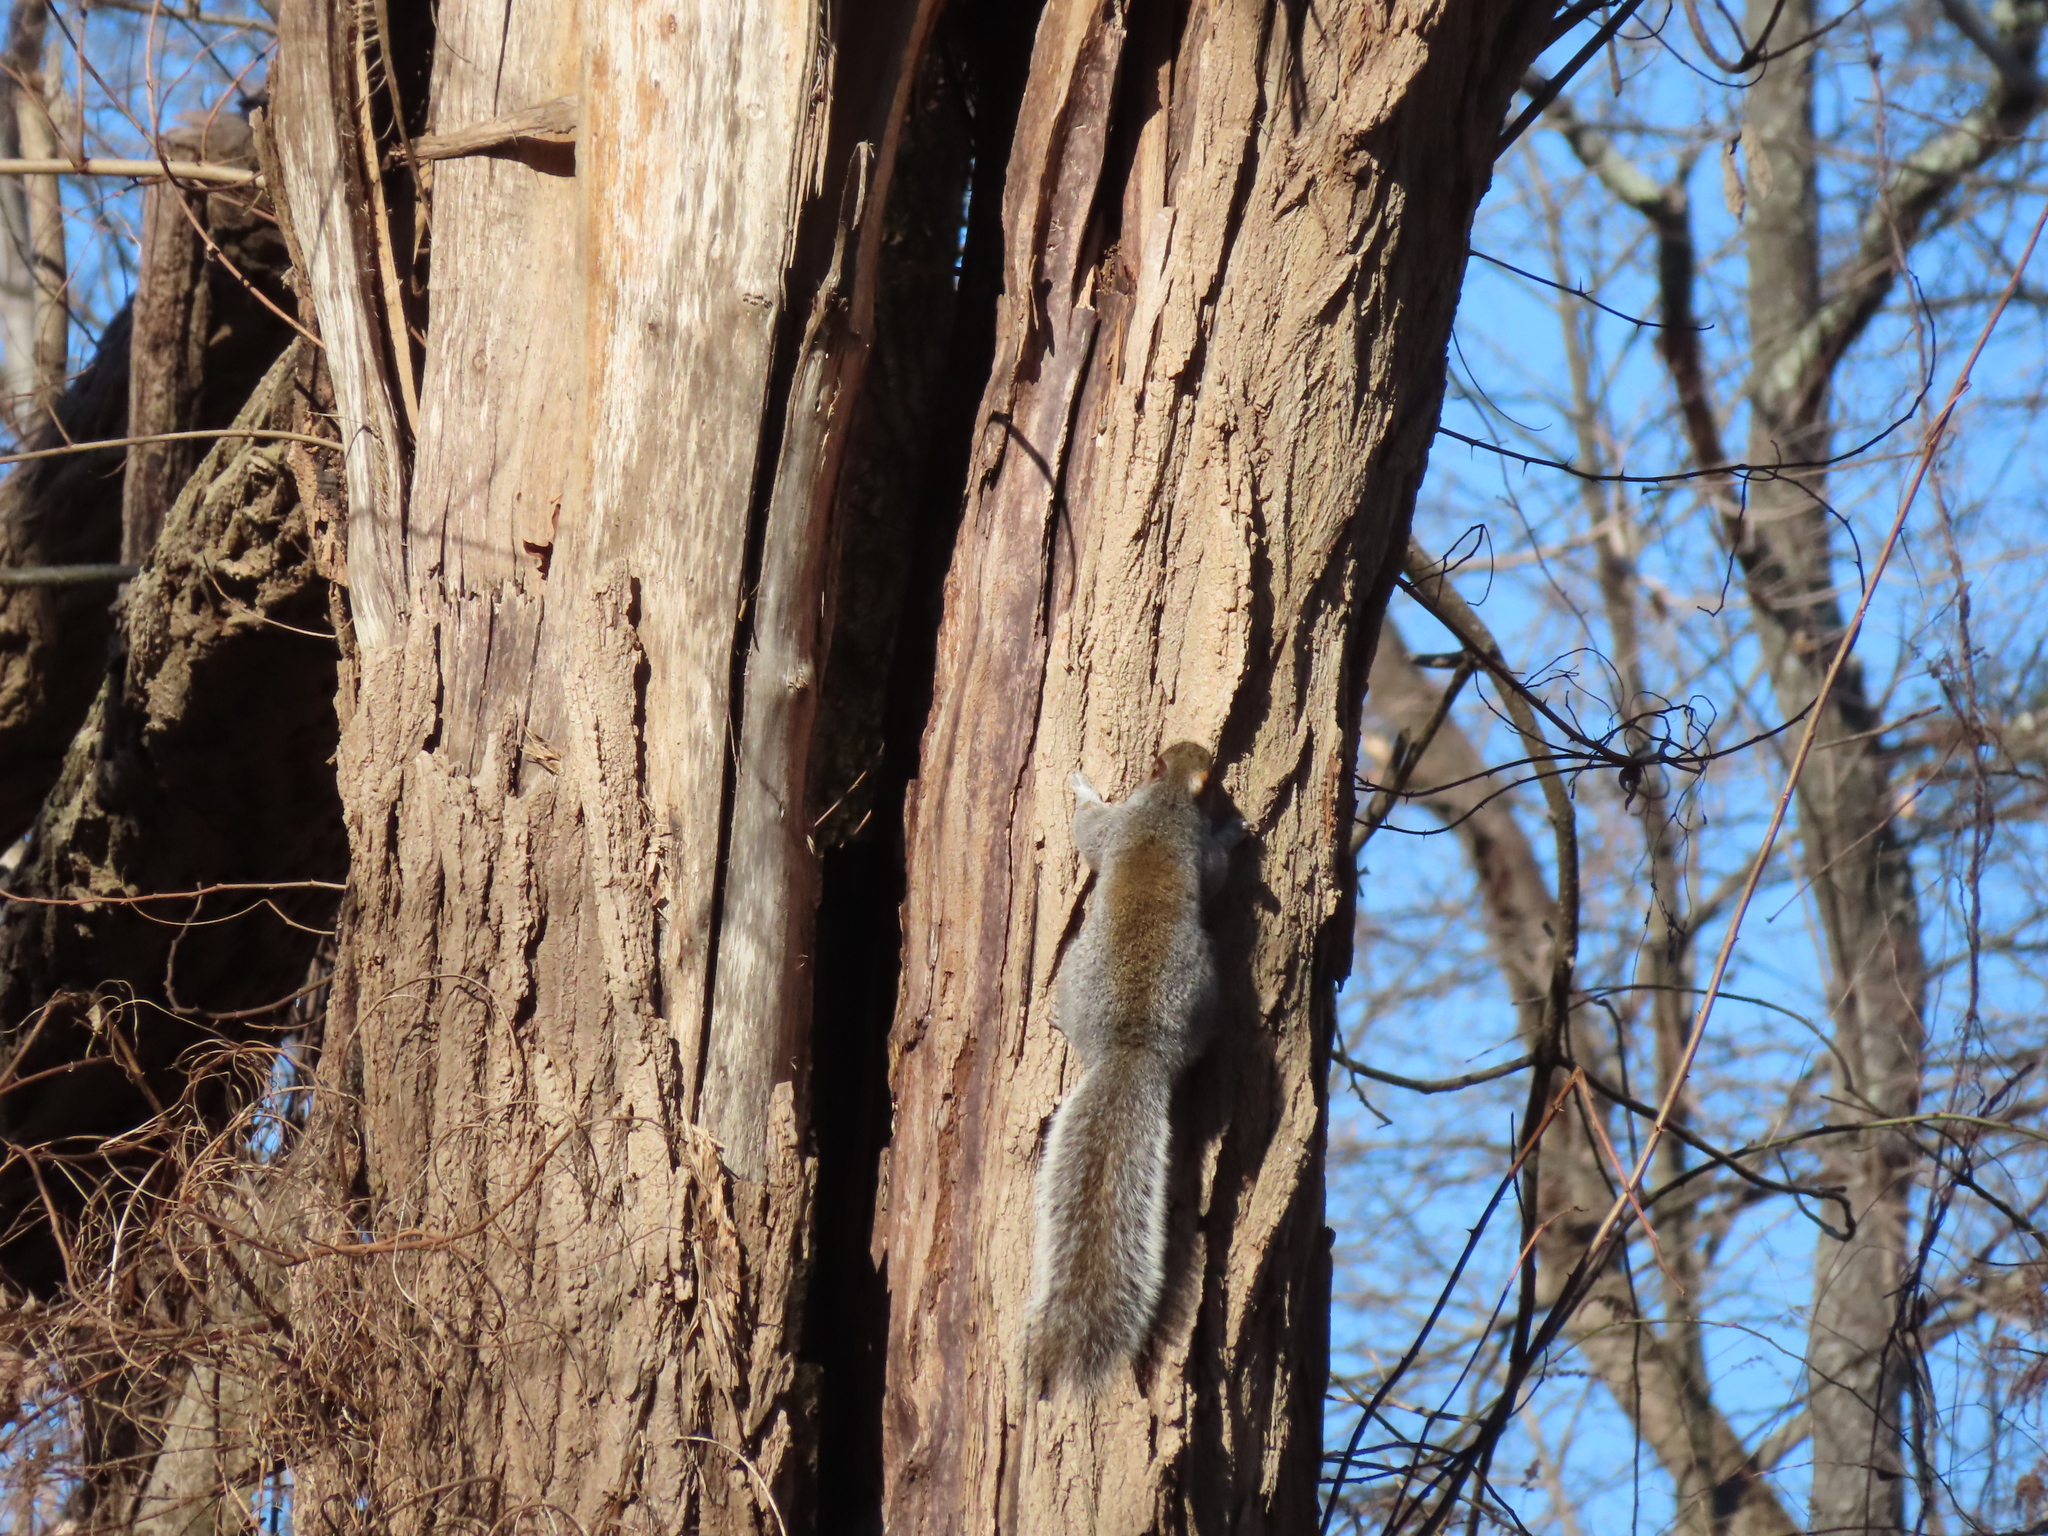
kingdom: Animalia
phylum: Chordata
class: Mammalia
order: Rodentia
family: Sciuridae
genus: Sciurus
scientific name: Sciurus carolinensis
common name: Eastern gray squirrel
